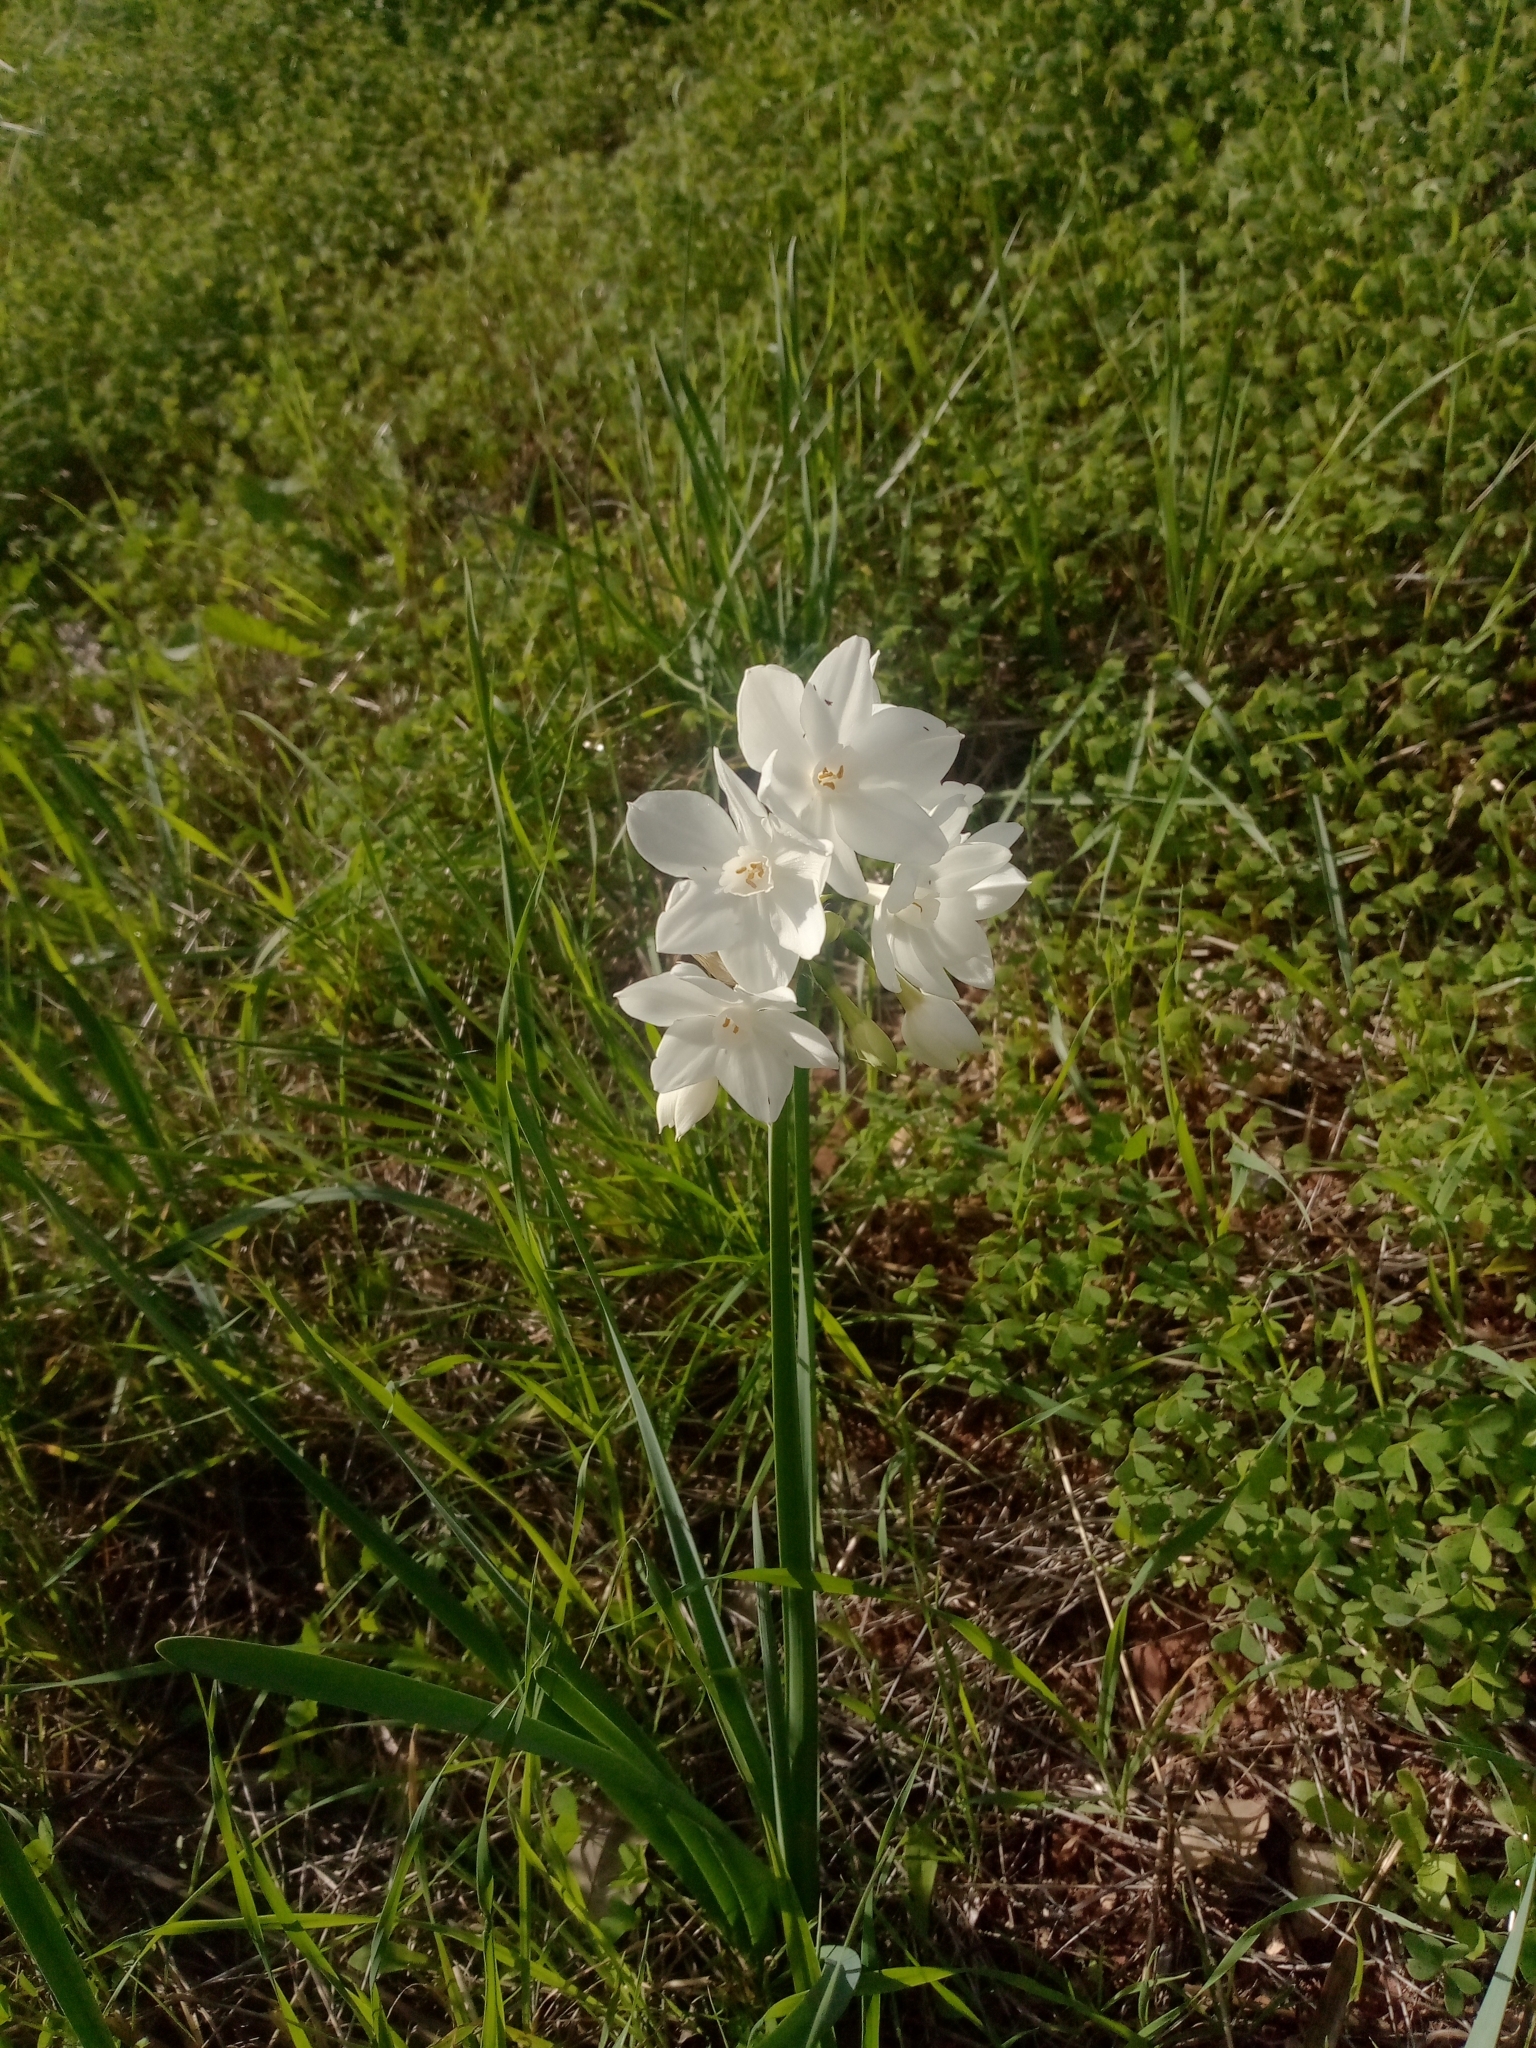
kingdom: Plantae
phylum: Tracheophyta
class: Liliopsida
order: Asparagales
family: Amaryllidaceae
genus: Narcissus
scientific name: Narcissus papyraceus
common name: Paper-white daffodil
